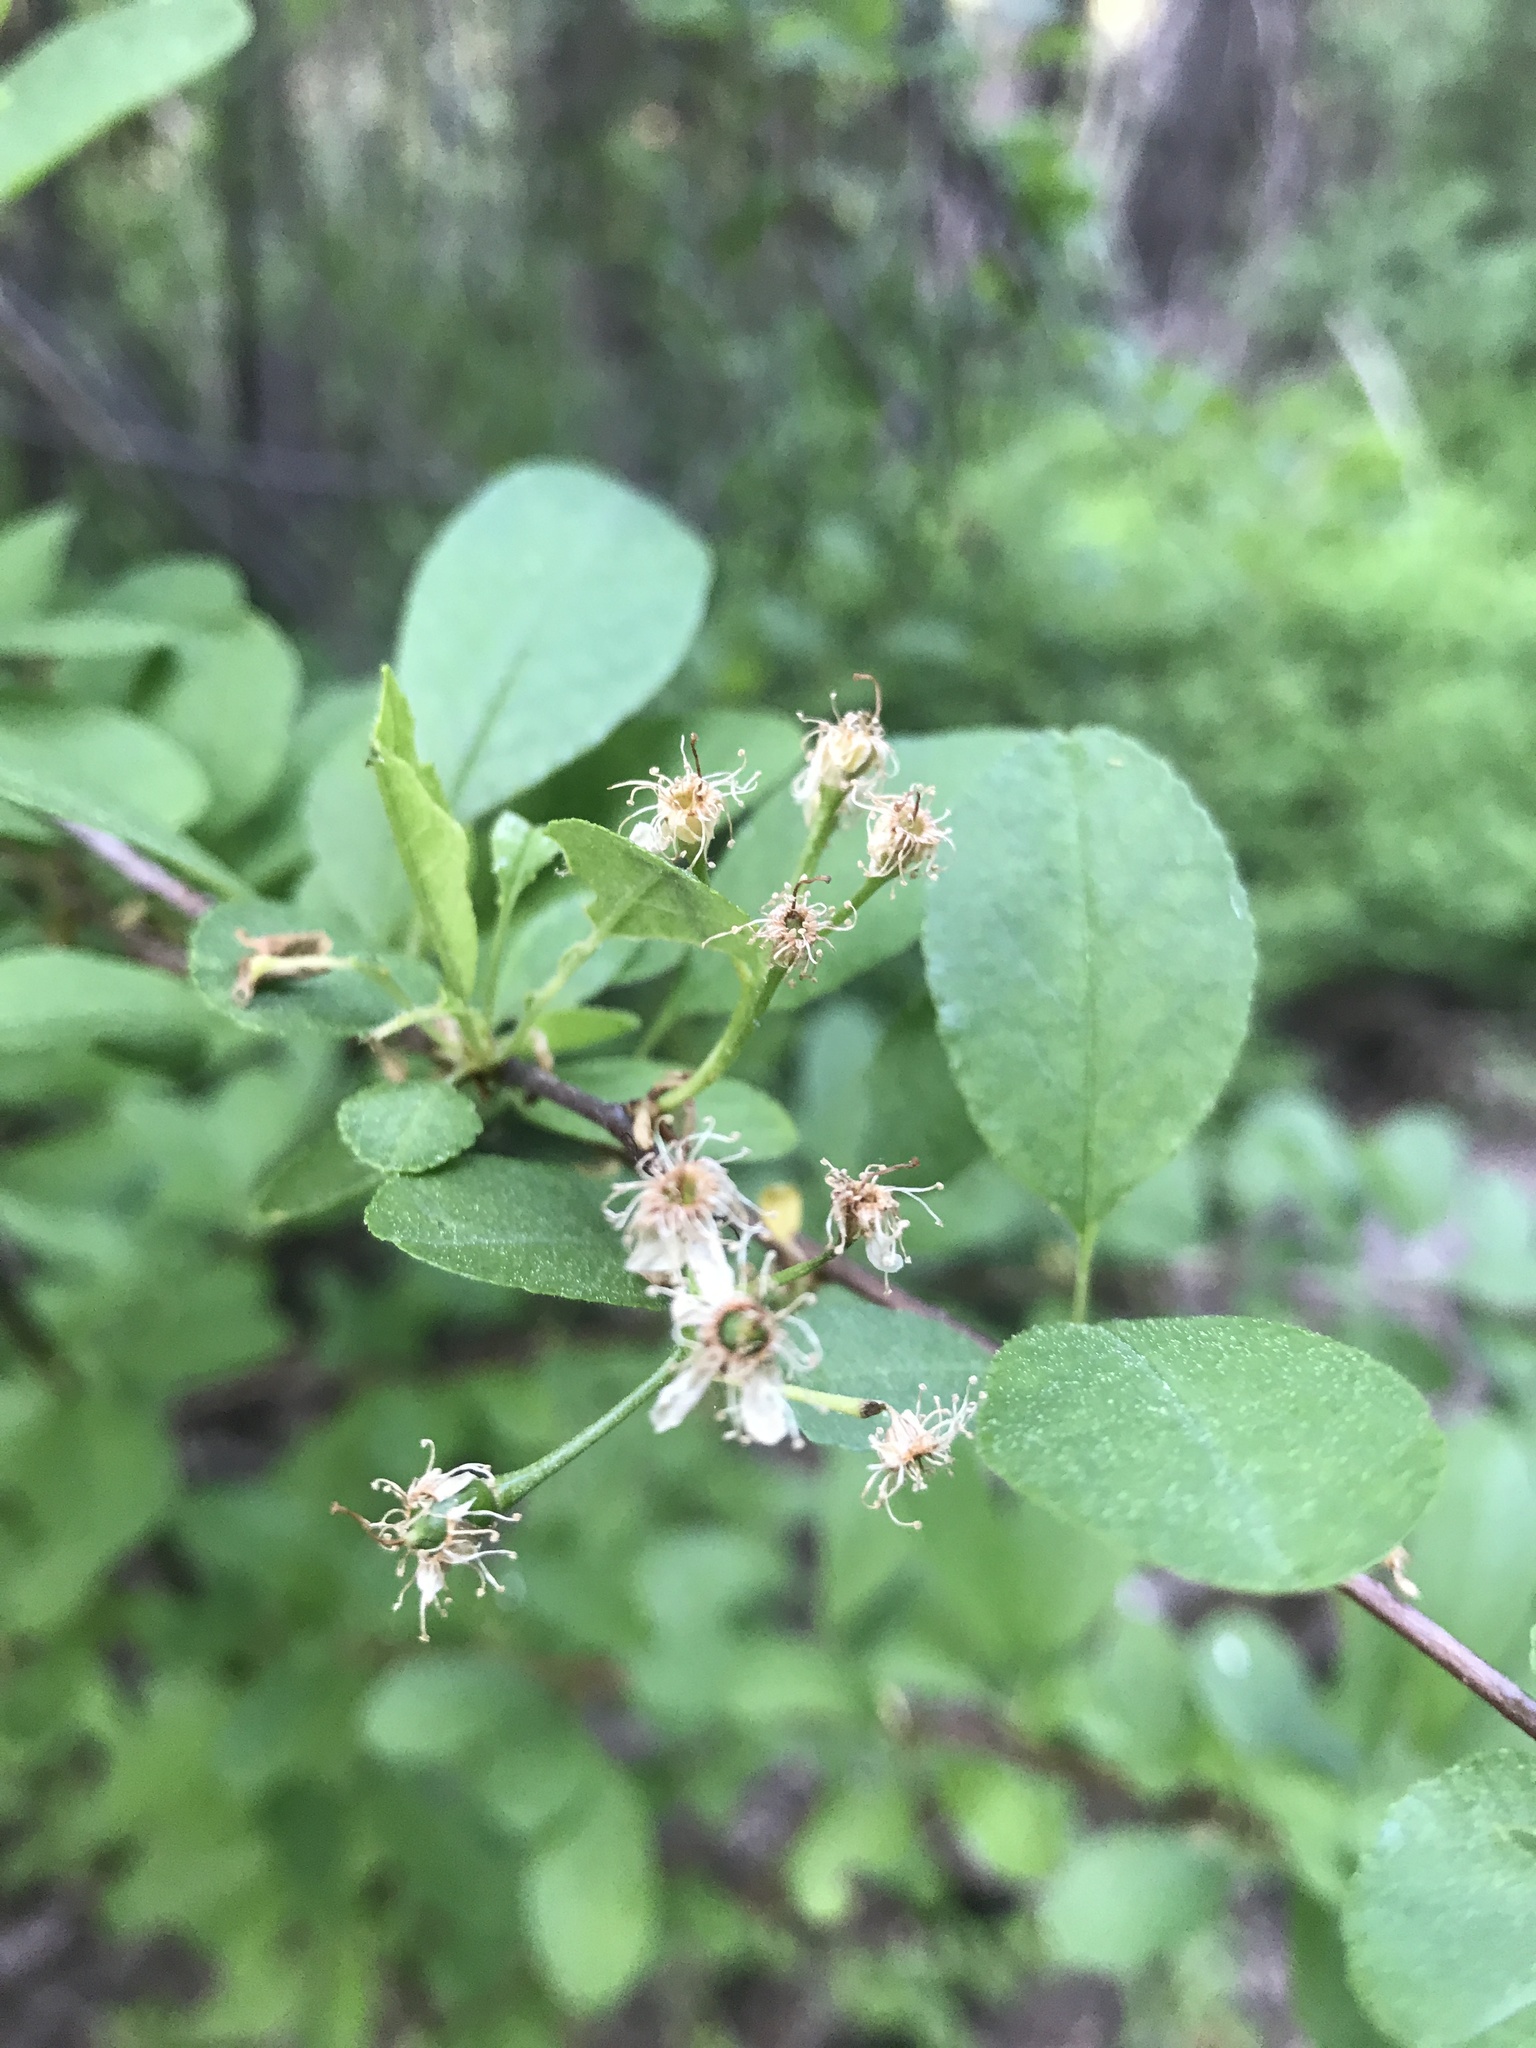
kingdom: Plantae
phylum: Tracheophyta
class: Magnoliopsida
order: Rosales
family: Rosaceae
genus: Prunus
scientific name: Prunus emarginata
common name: Bitter cherry
